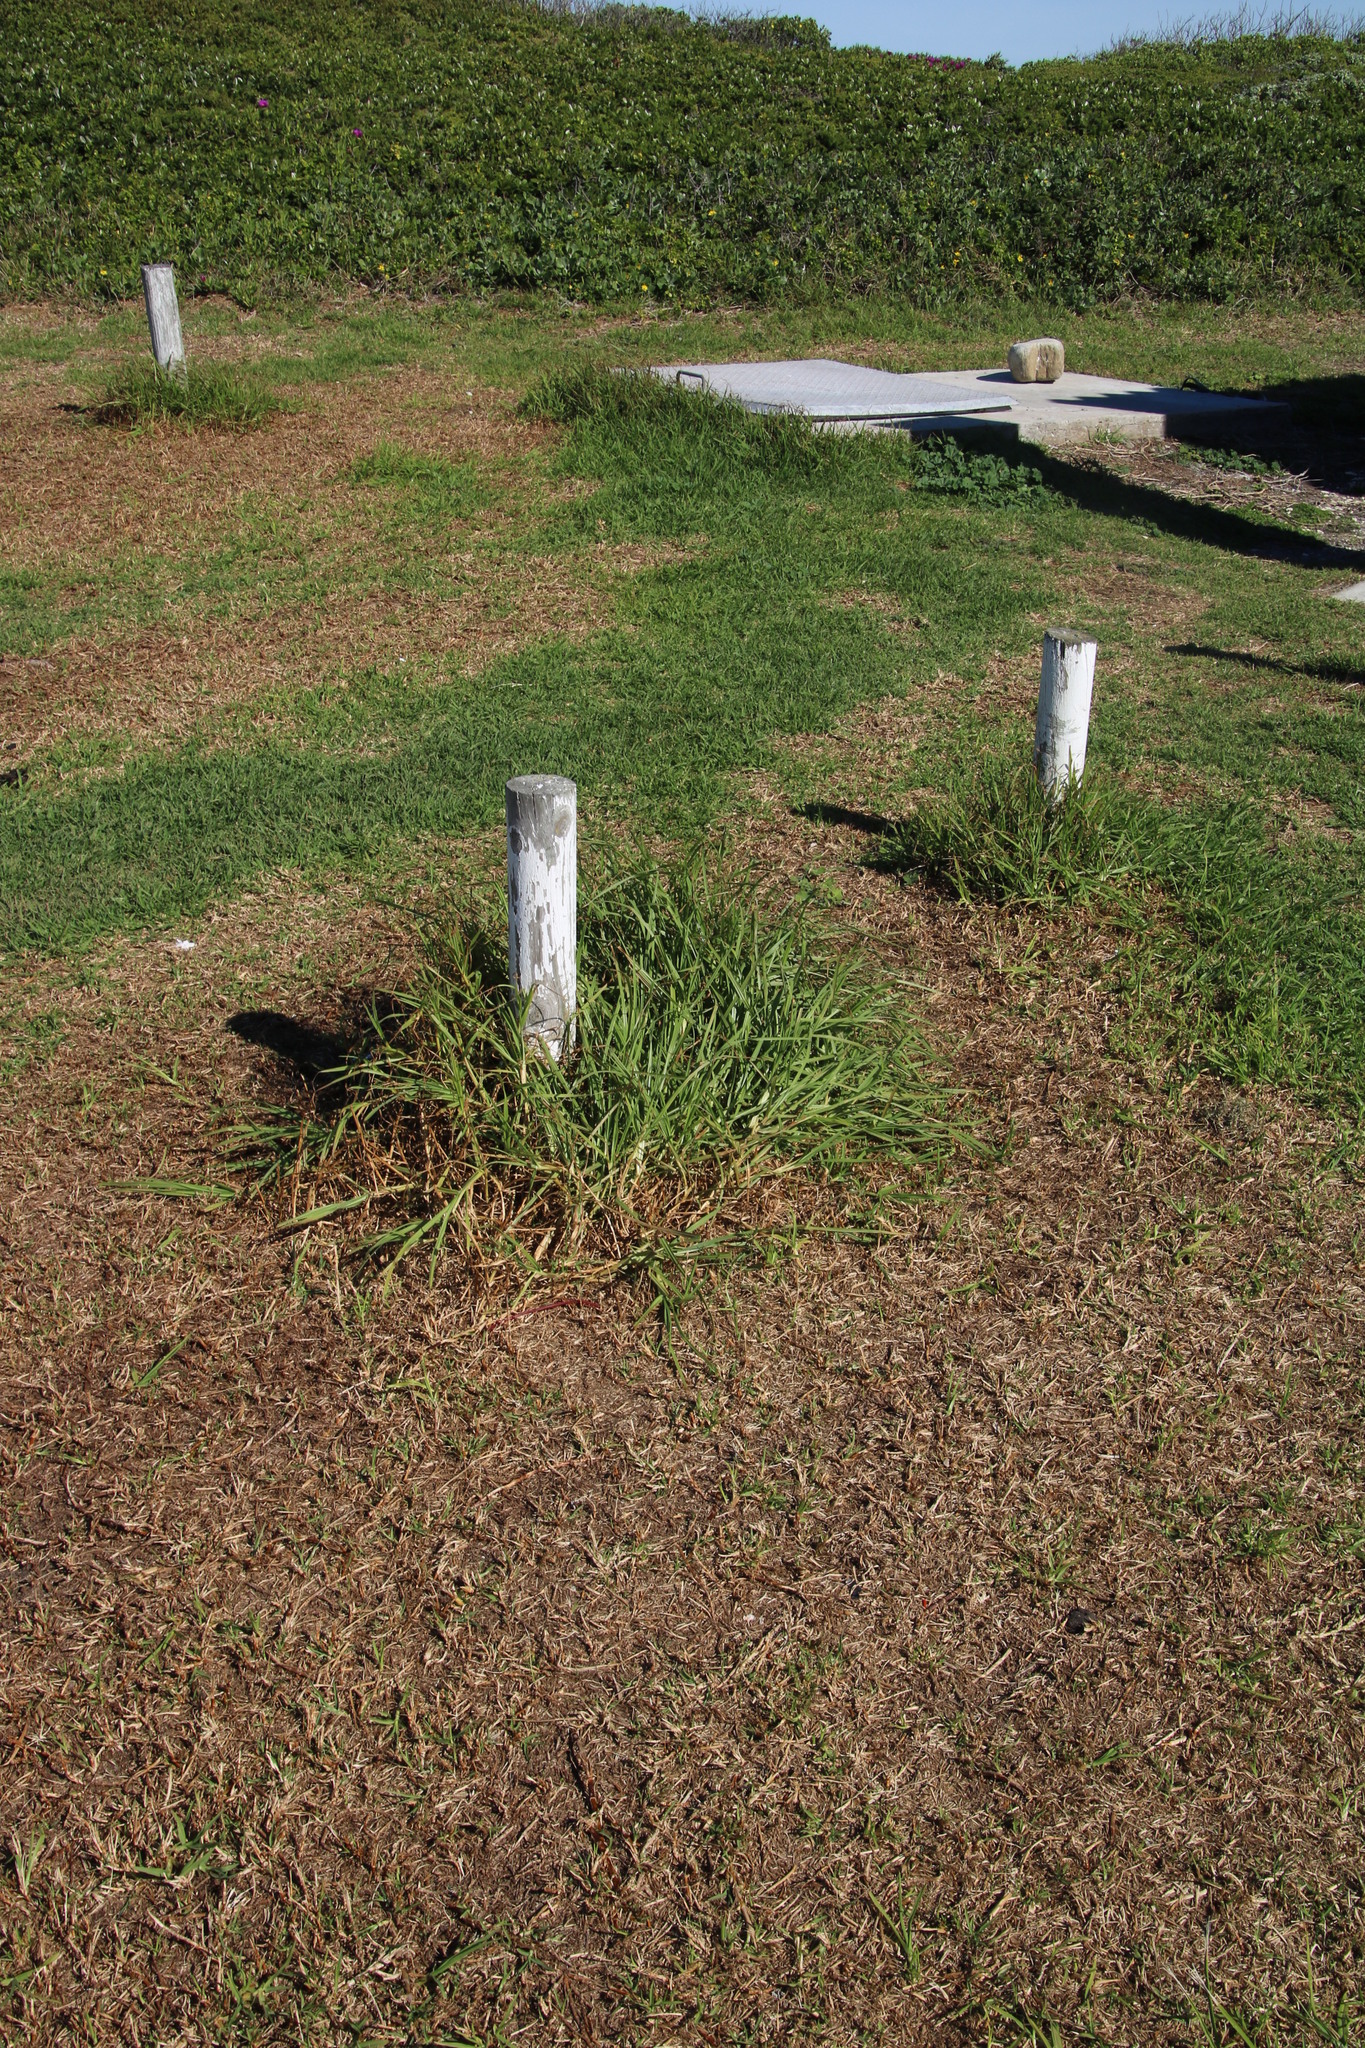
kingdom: Plantae
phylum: Tracheophyta
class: Liliopsida
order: Poales
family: Poaceae
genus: Cenchrus
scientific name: Cenchrus clandestinus
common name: Kikuyugrass
